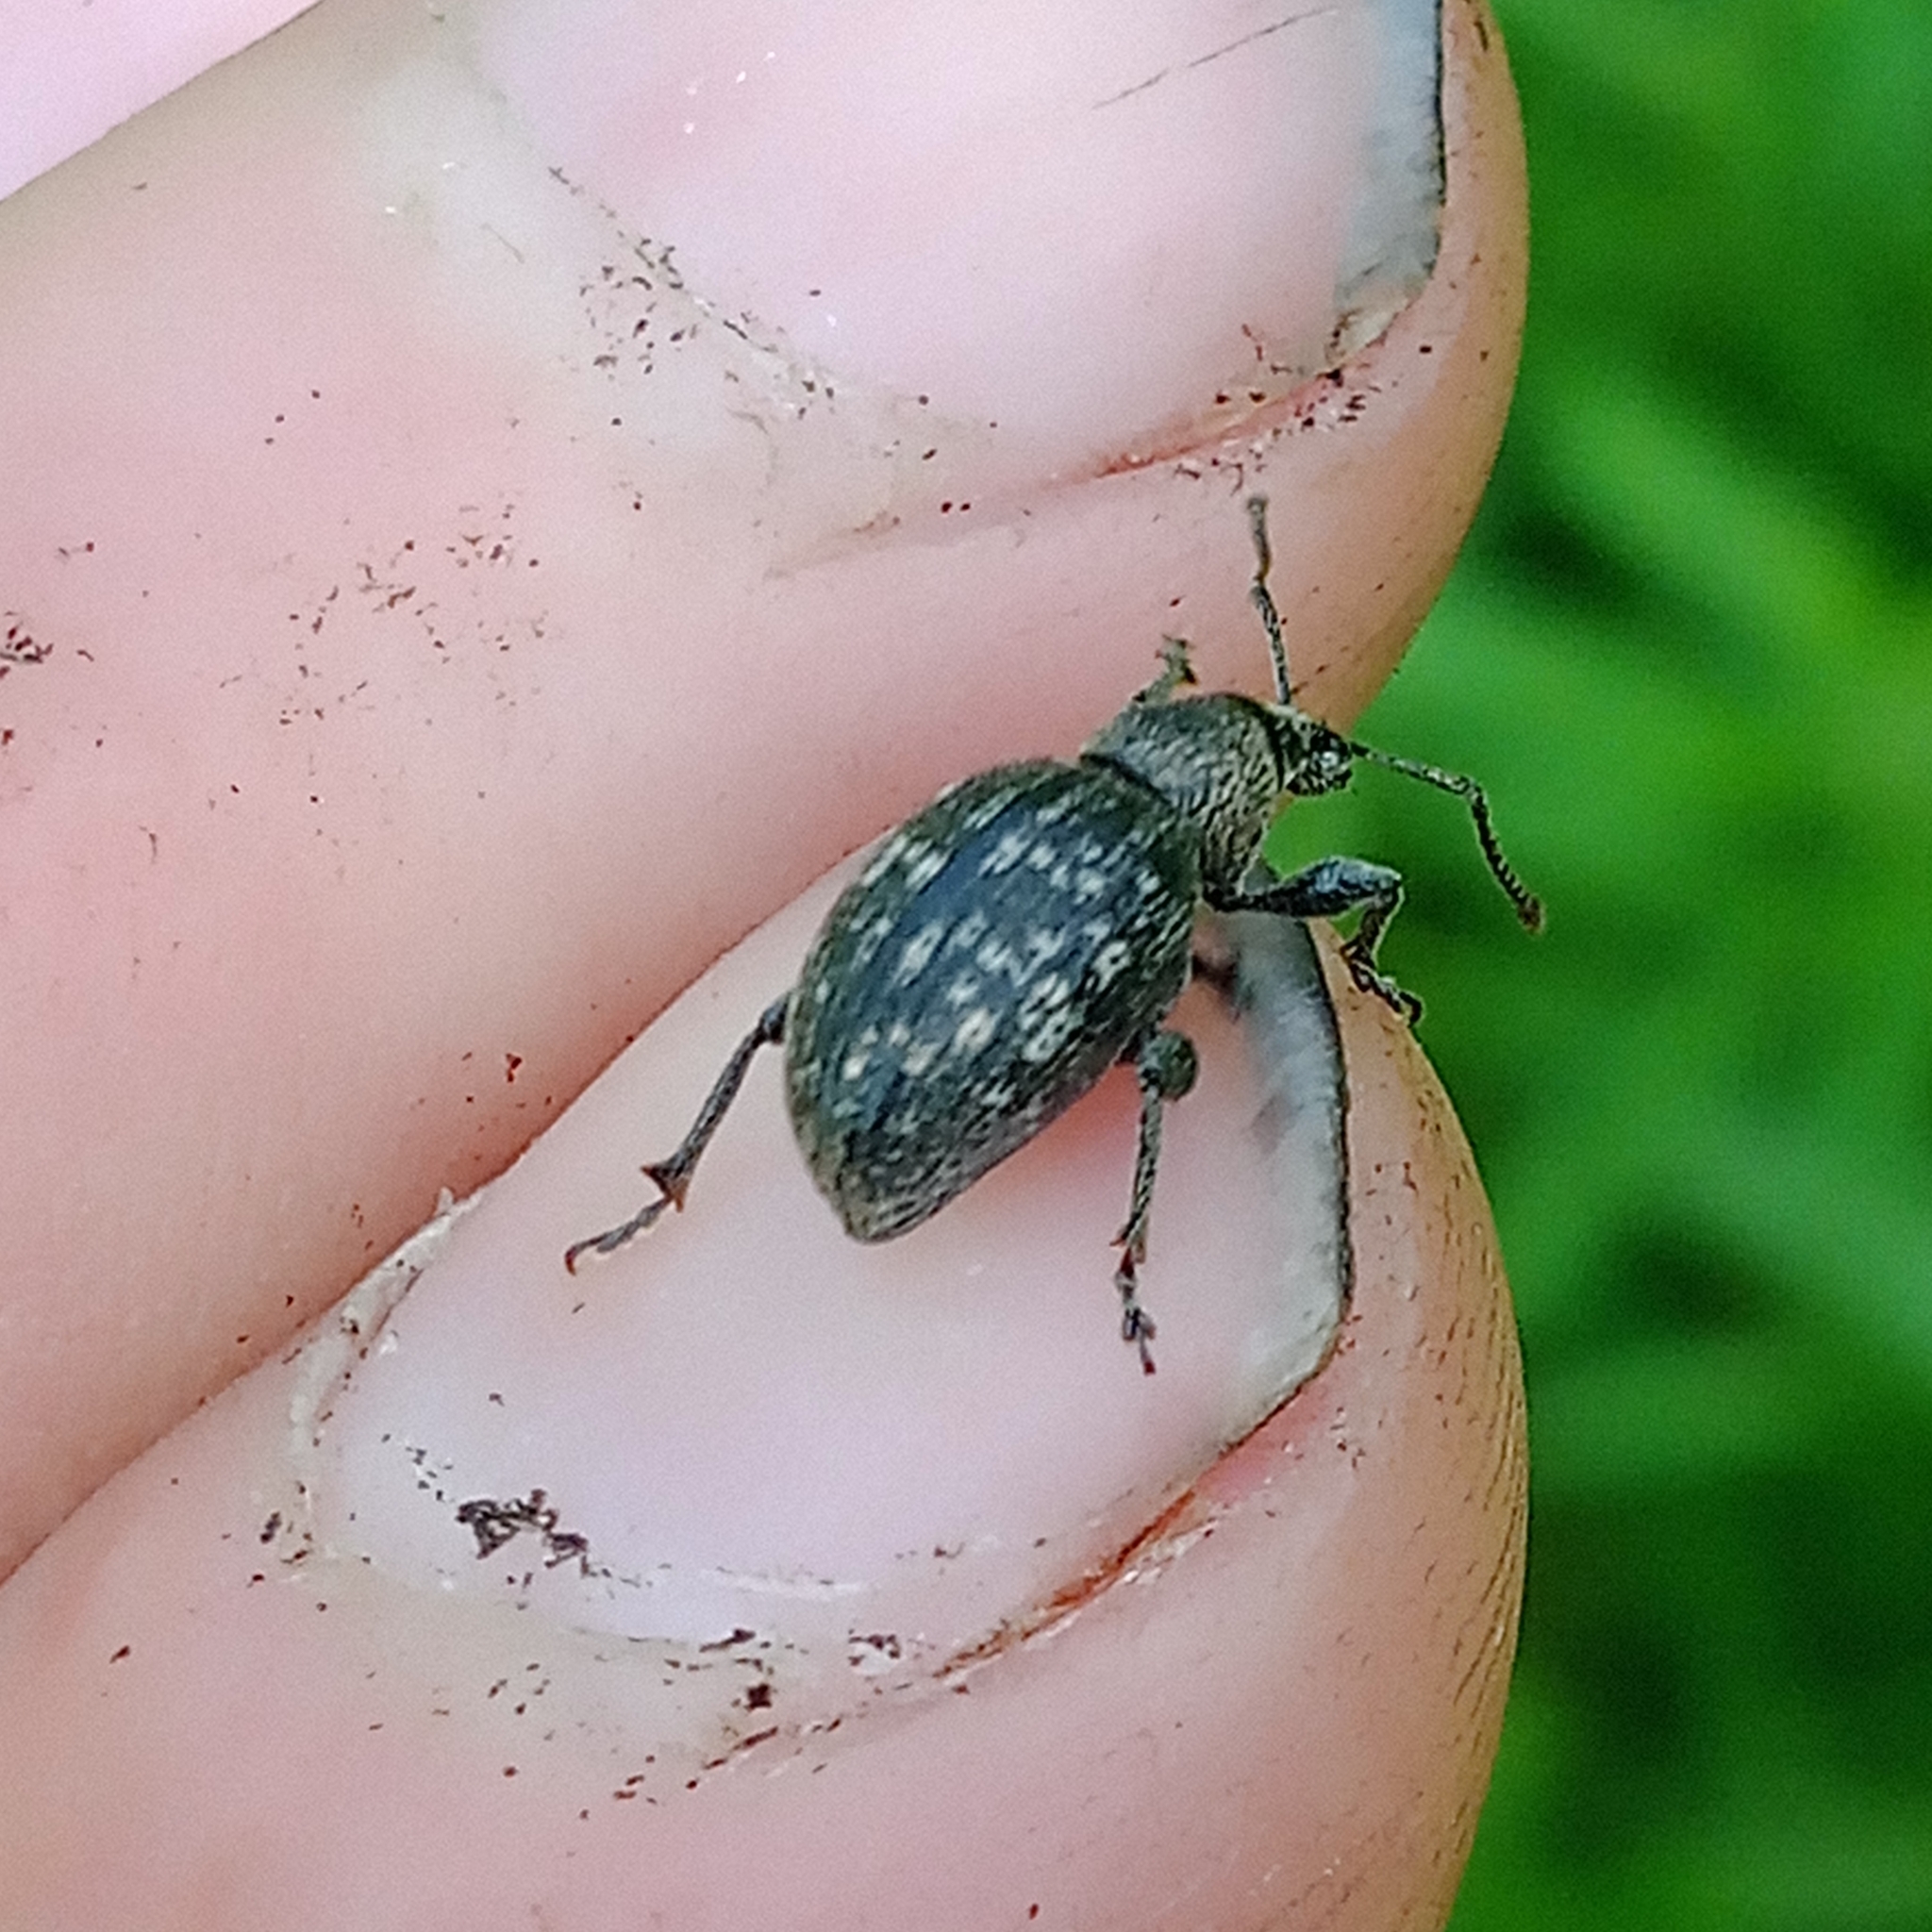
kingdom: Animalia
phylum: Arthropoda
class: Insecta
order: Coleoptera
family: Curculionidae
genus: Otiorhynchus
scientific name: Otiorhynchus tristis
